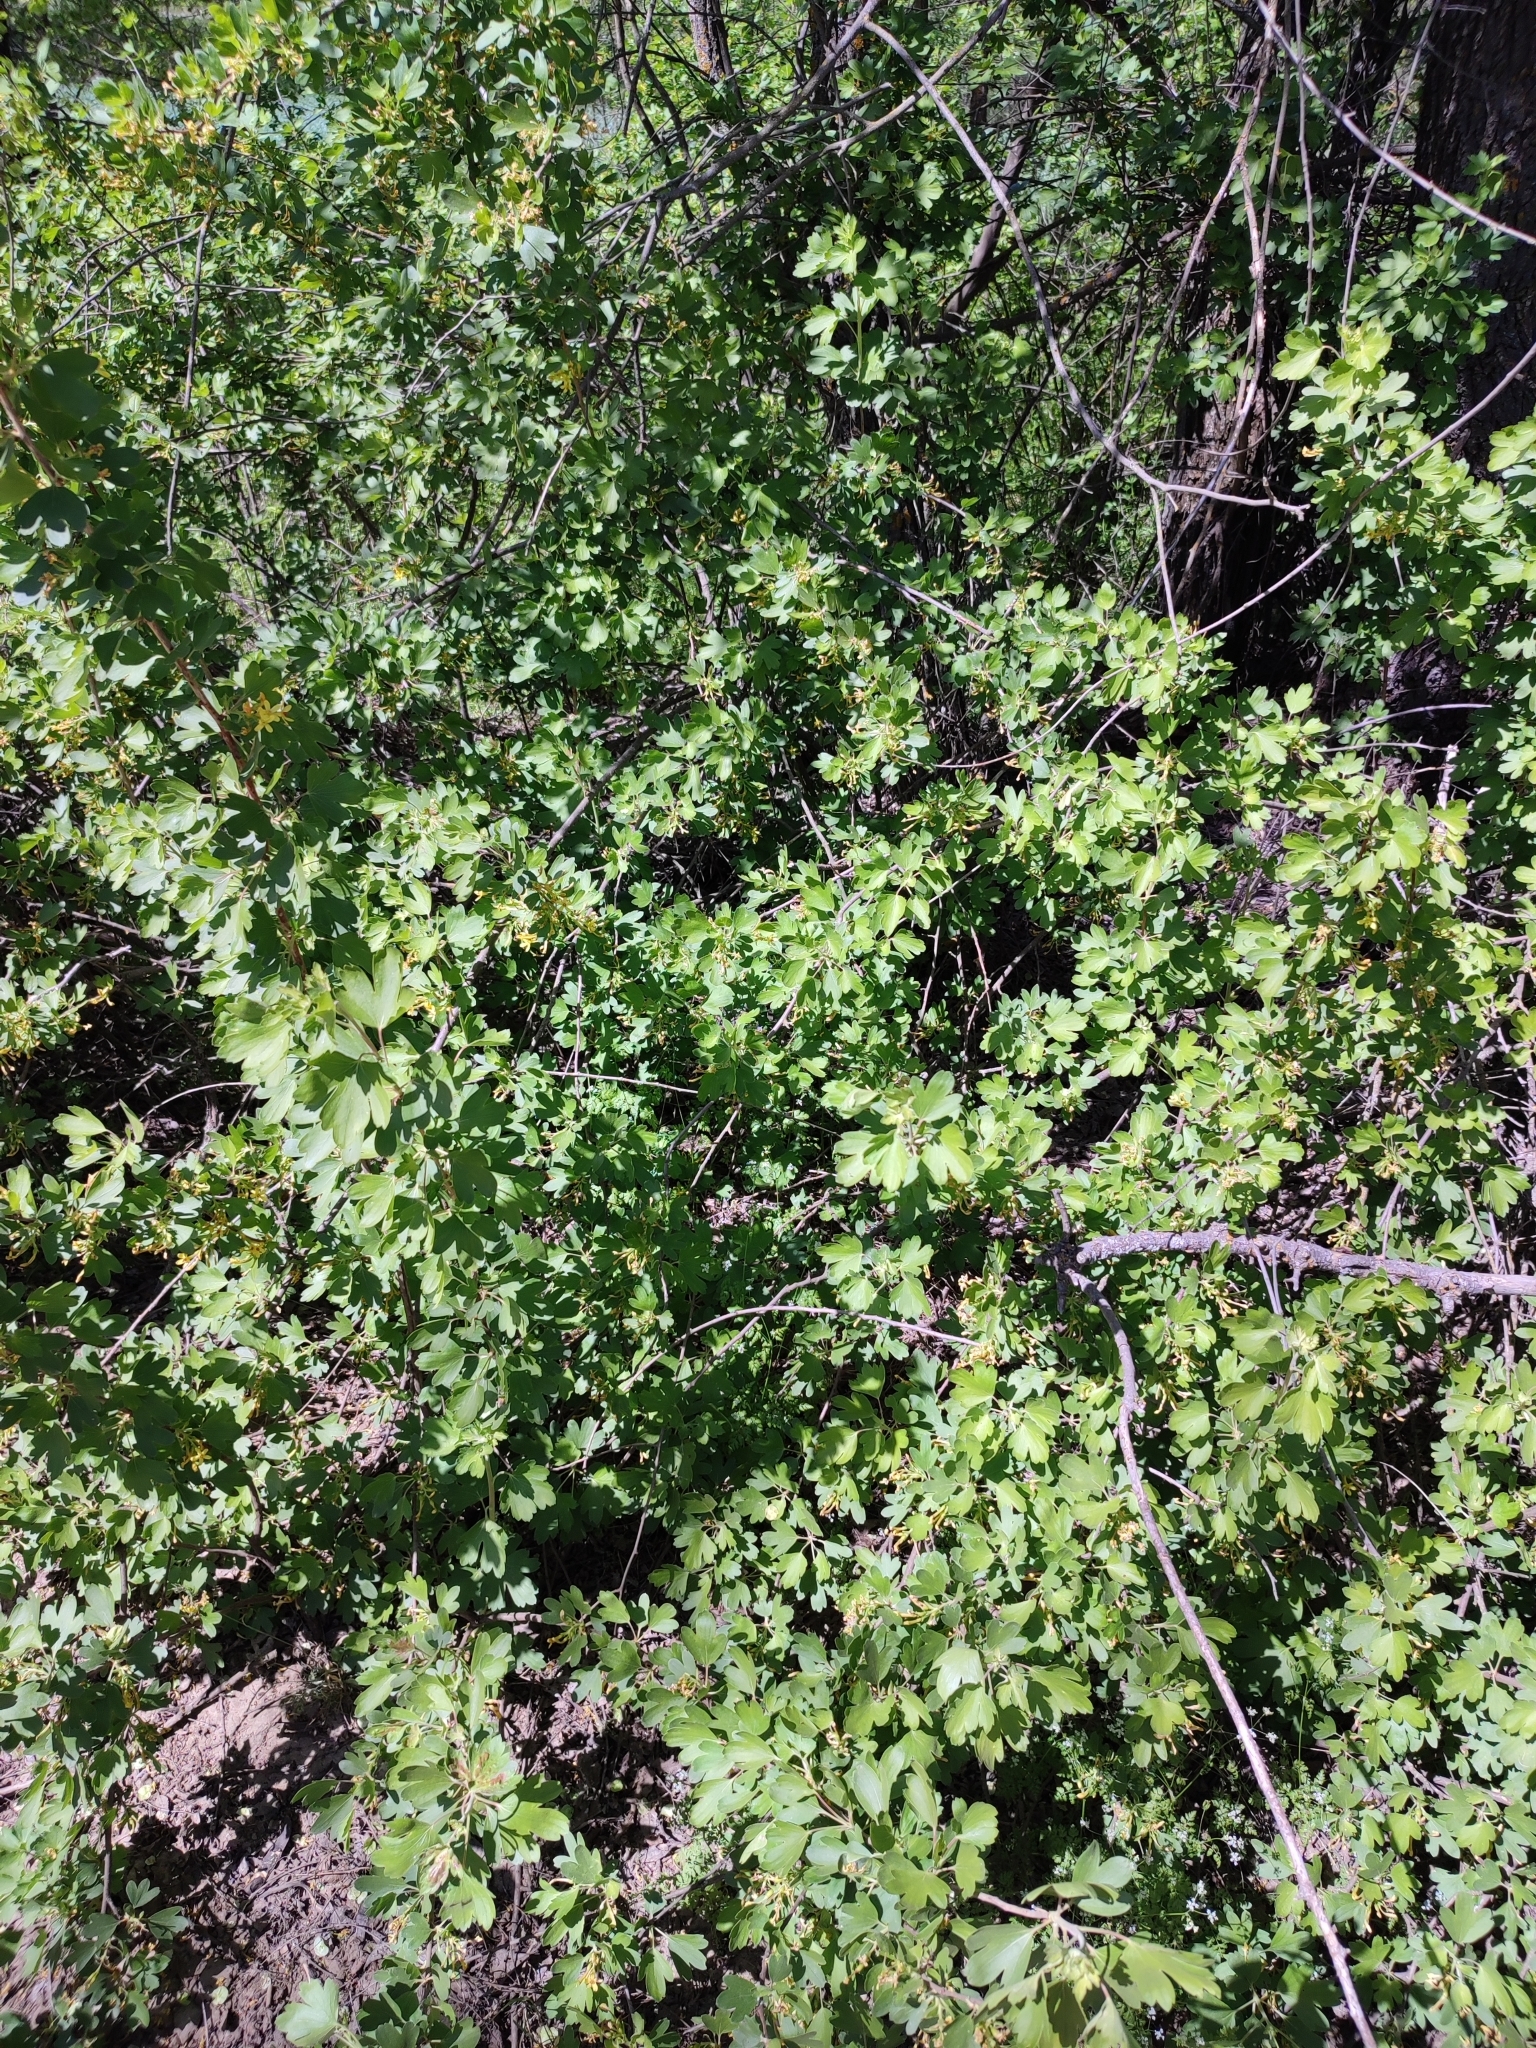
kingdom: Plantae
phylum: Tracheophyta
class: Magnoliopsida
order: Saxifragales
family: Grossulariaceae
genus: Ribes
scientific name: Ribes aureum
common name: Golden currant
